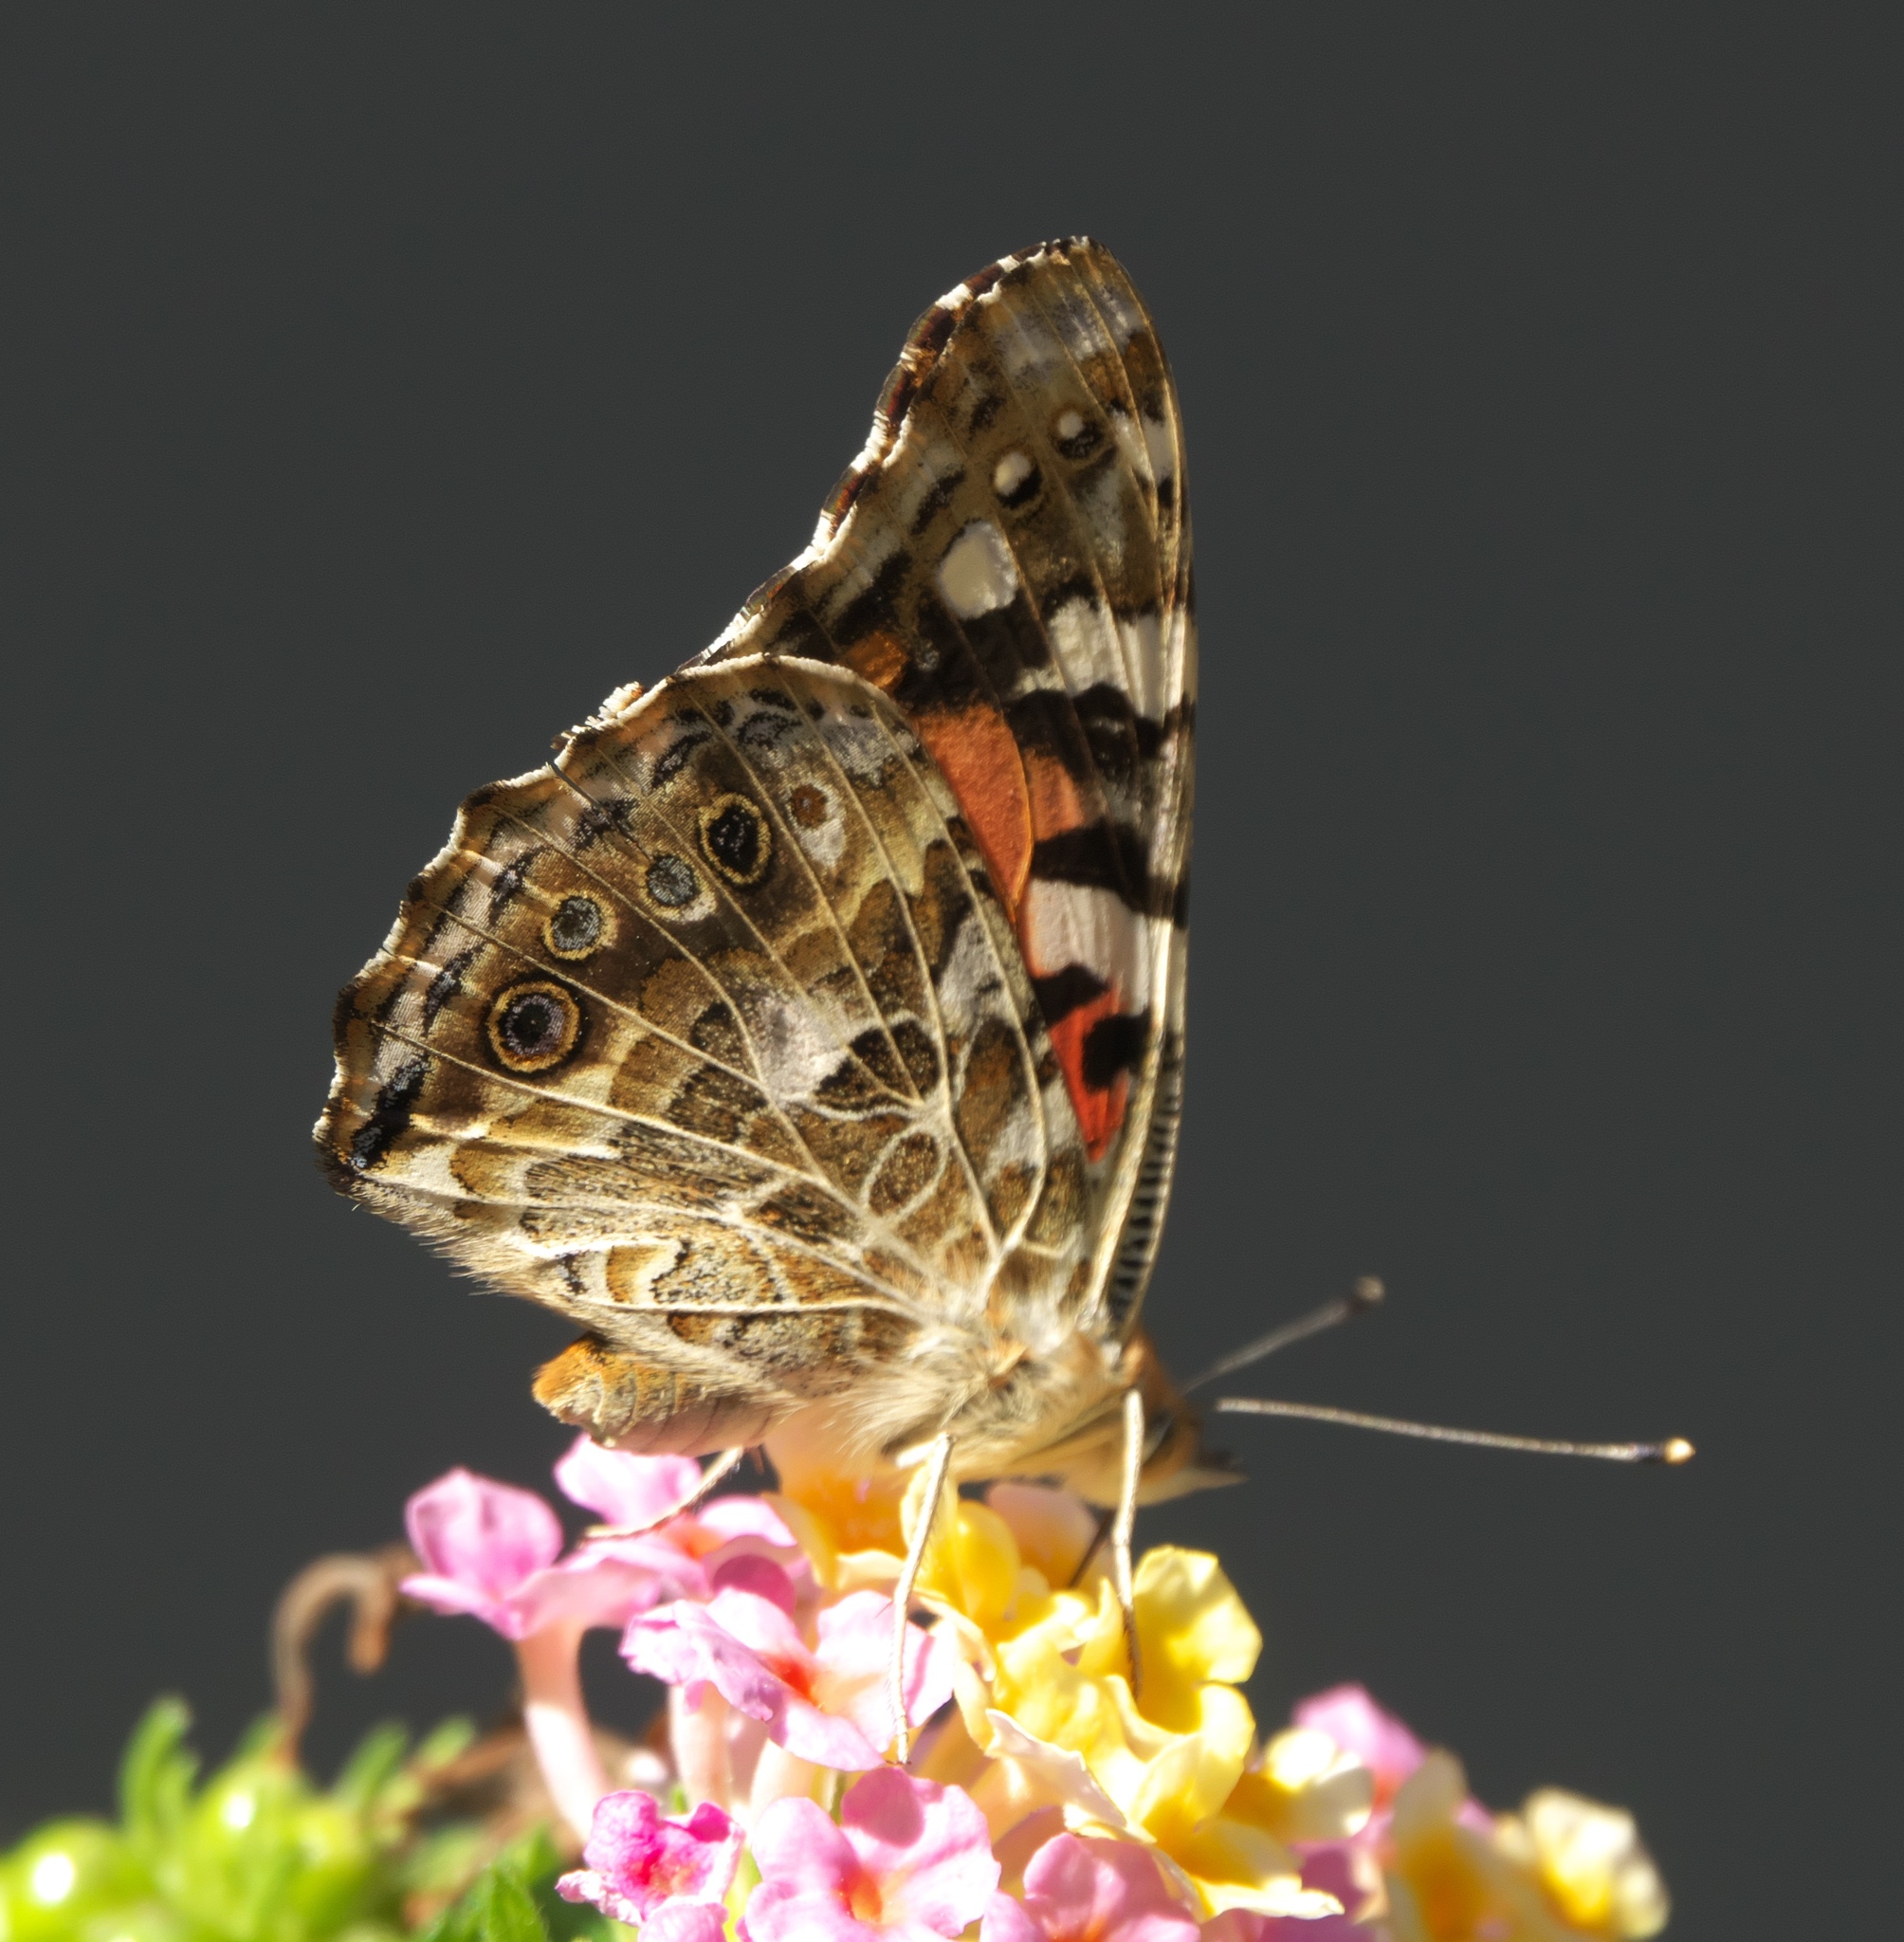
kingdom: Animalia
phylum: Arthropoda
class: Insecta
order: Lepidoptera
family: Nymphalidae
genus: Vanessa
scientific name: Vanessa cardui
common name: Painted lady
